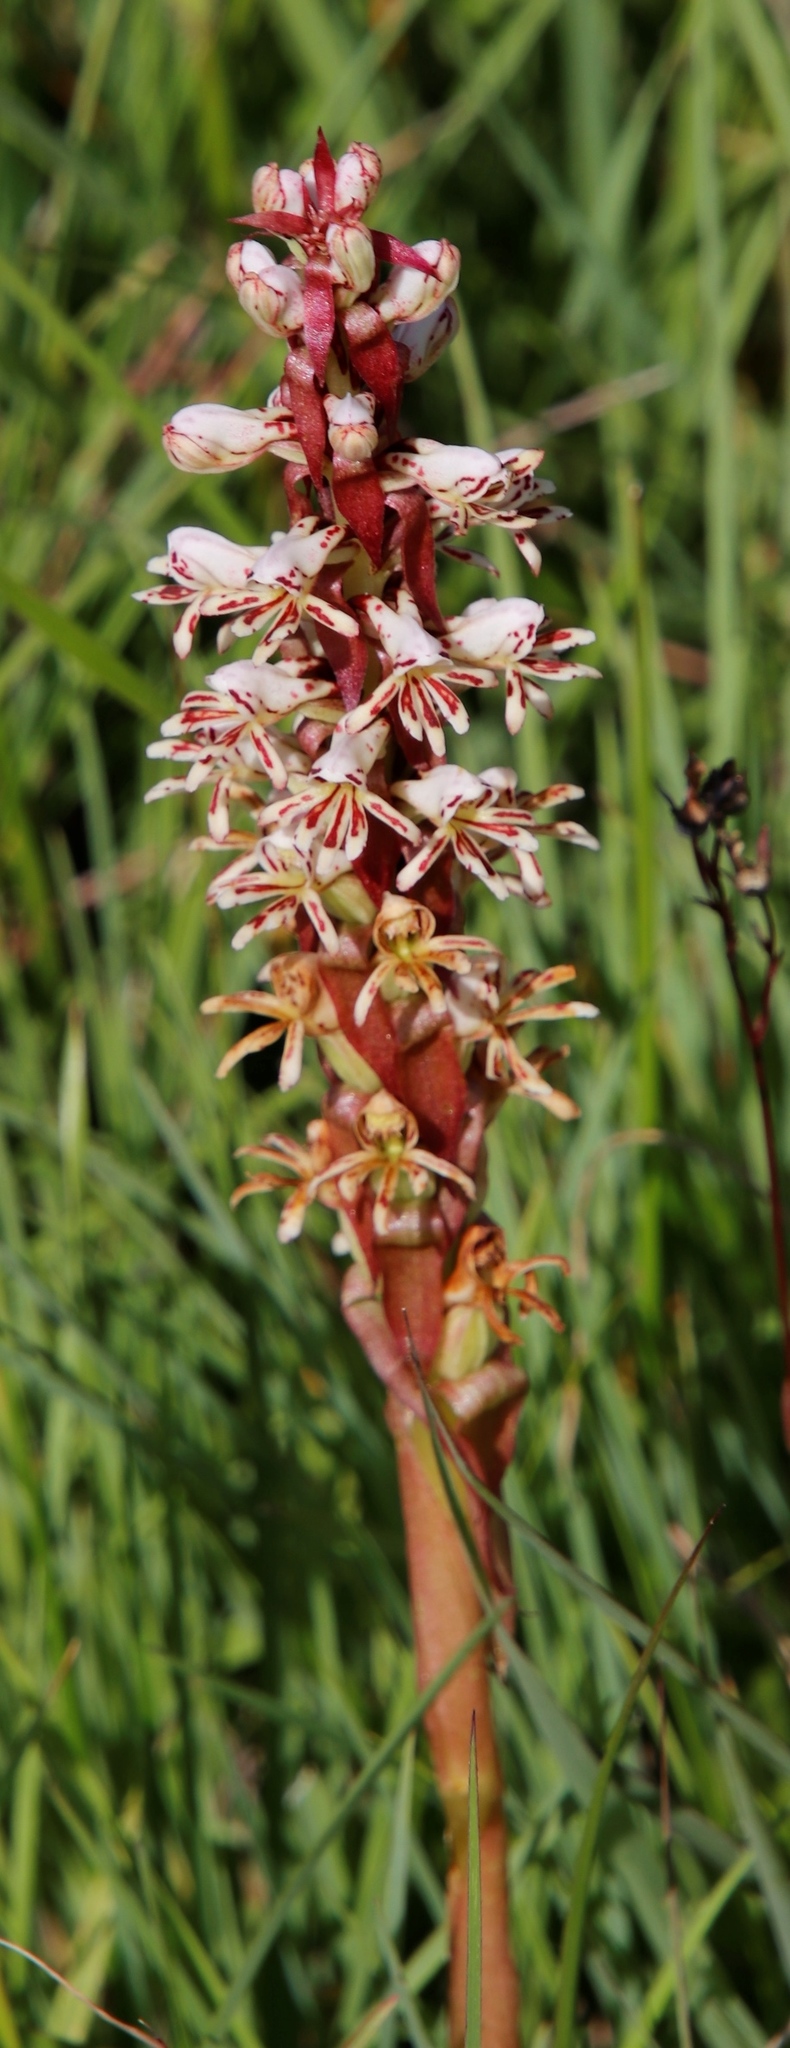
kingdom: Plantae
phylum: Tracheophyta
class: Liliopsida
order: Asparagales
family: Orchidaceae
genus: Satyrium
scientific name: Satyrium cristatum
